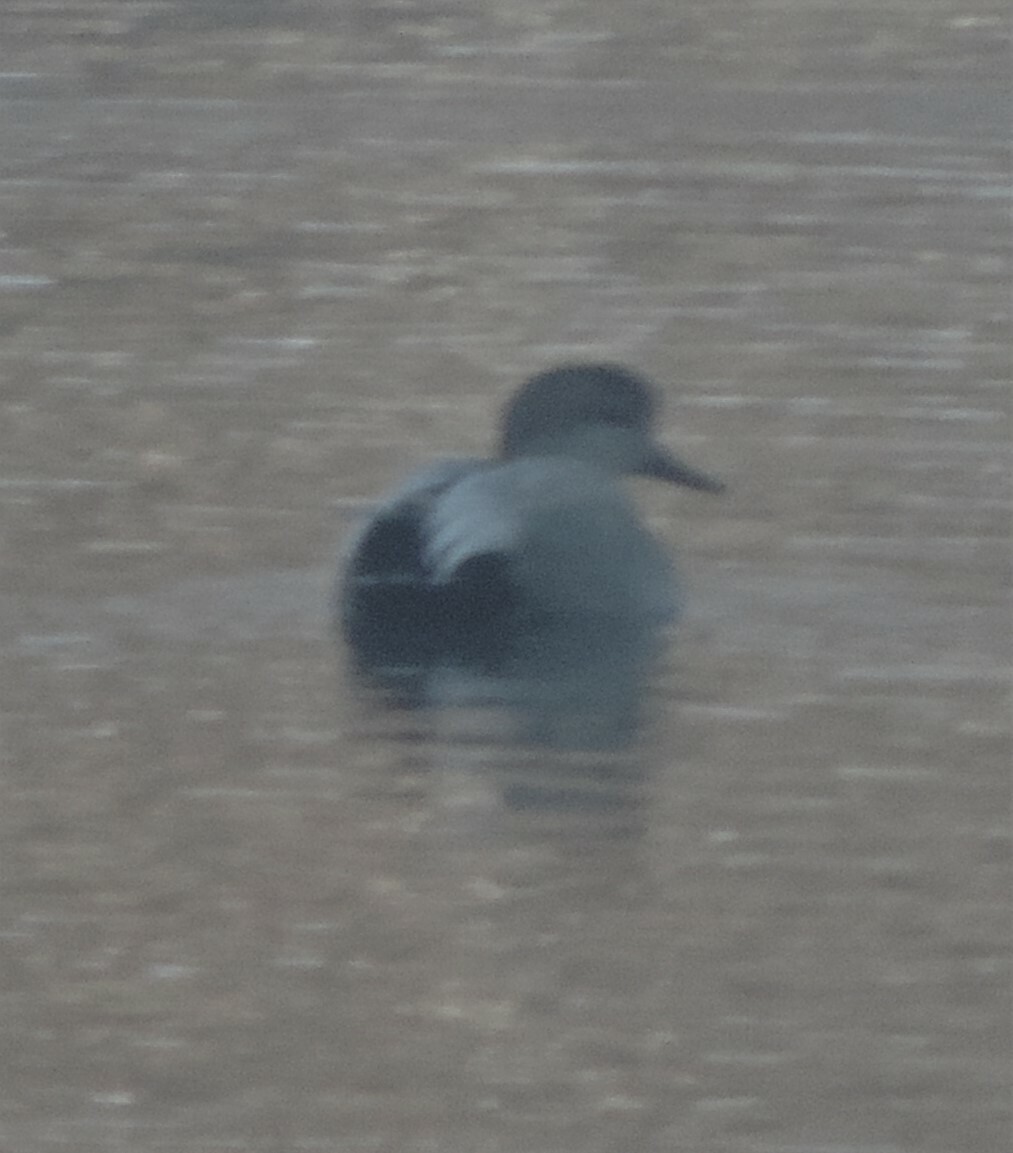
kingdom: Animalia
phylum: Chordata
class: Aves
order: Anseriformes
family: Anatidae
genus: Mareca
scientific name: Mareca strepera
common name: Gadwall
